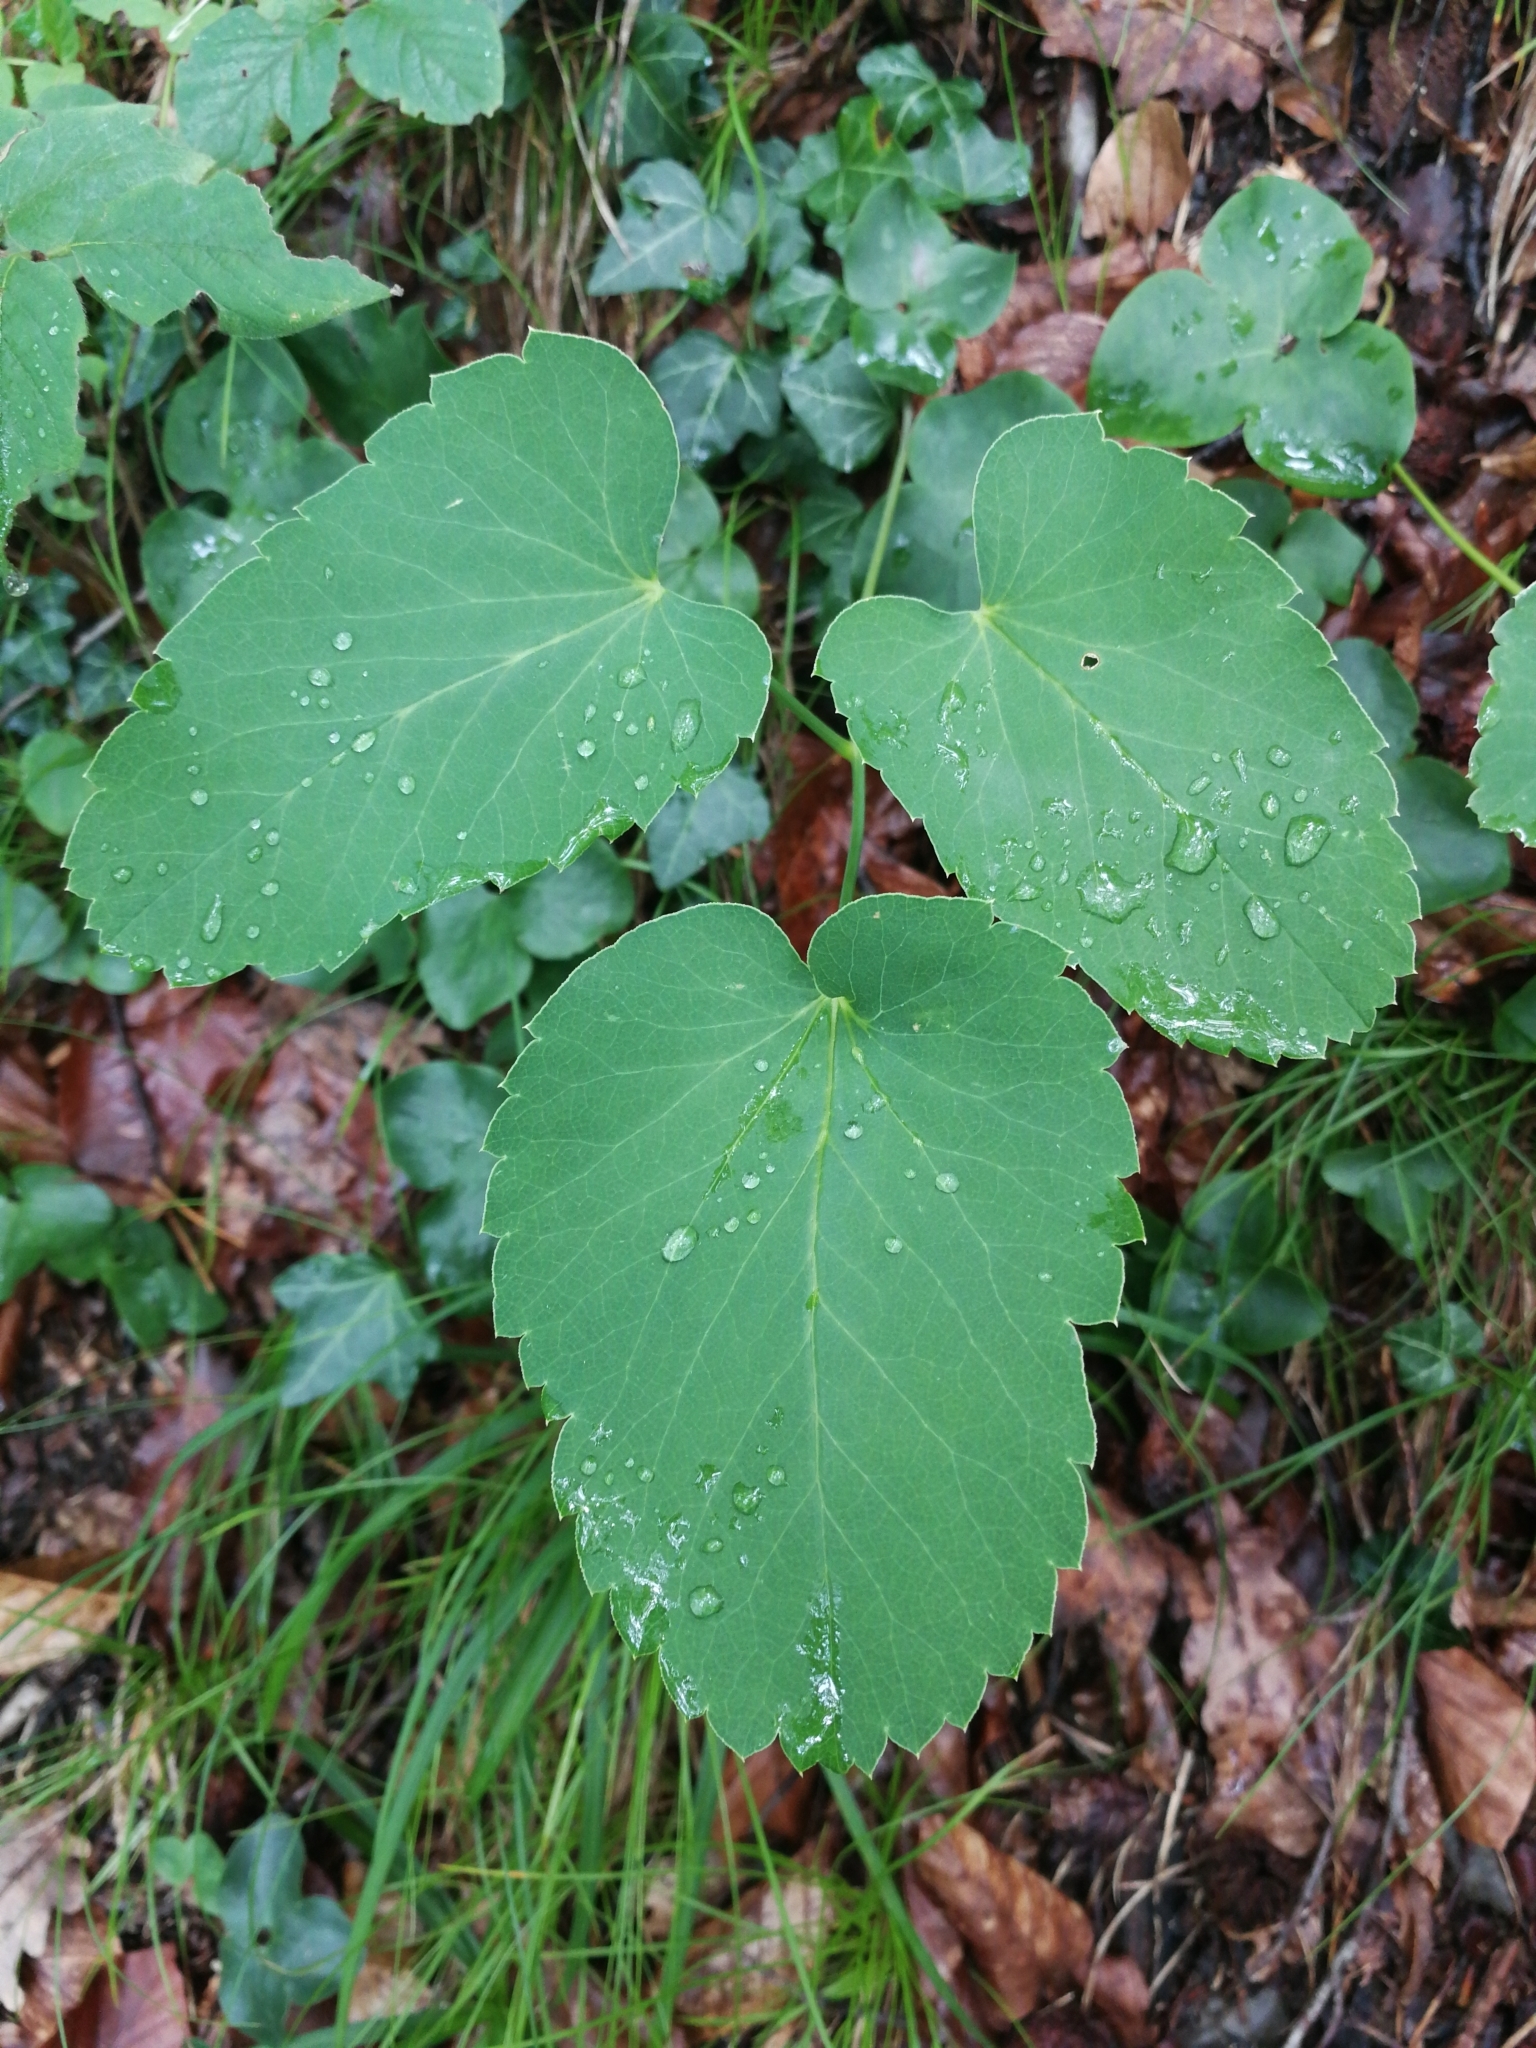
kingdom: Plantae
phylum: Tracheophyta
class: Magnoliopsida
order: Apiales
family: Apiaceae
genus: Laserpitium
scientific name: Laserpitium latifolium
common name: Broadleaf sermountain
